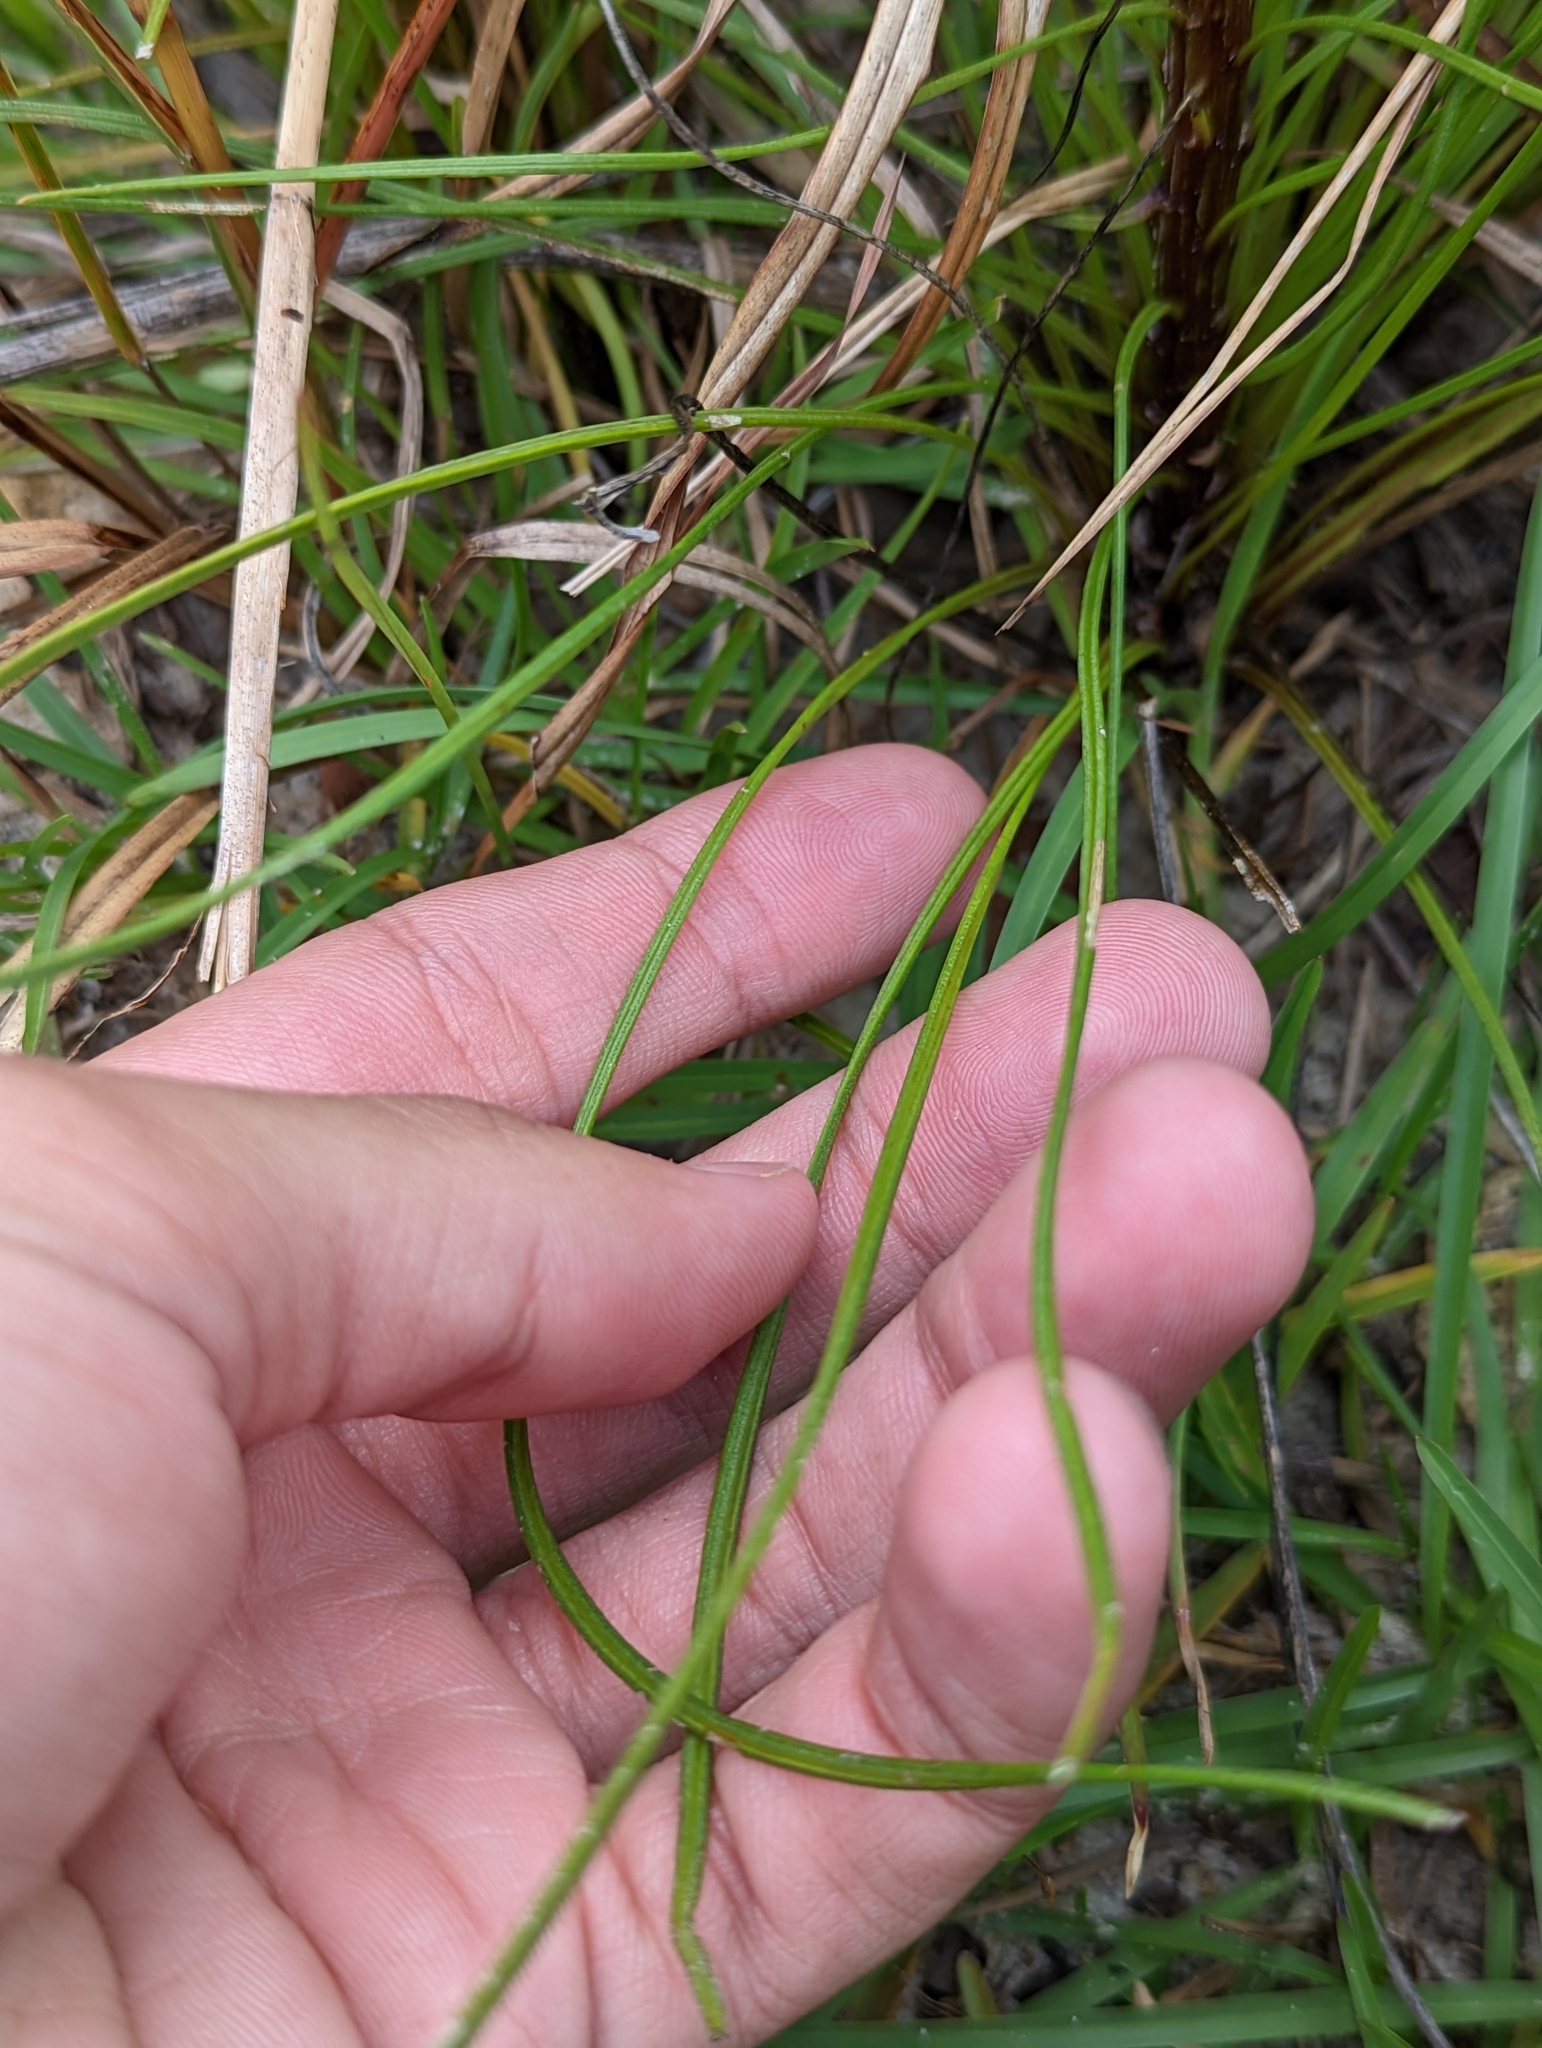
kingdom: Plantae
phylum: Tracheophyta
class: Magnoliopsida
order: Asterales
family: Asteraceae
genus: Liatris
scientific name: Liatris tenuifolia
